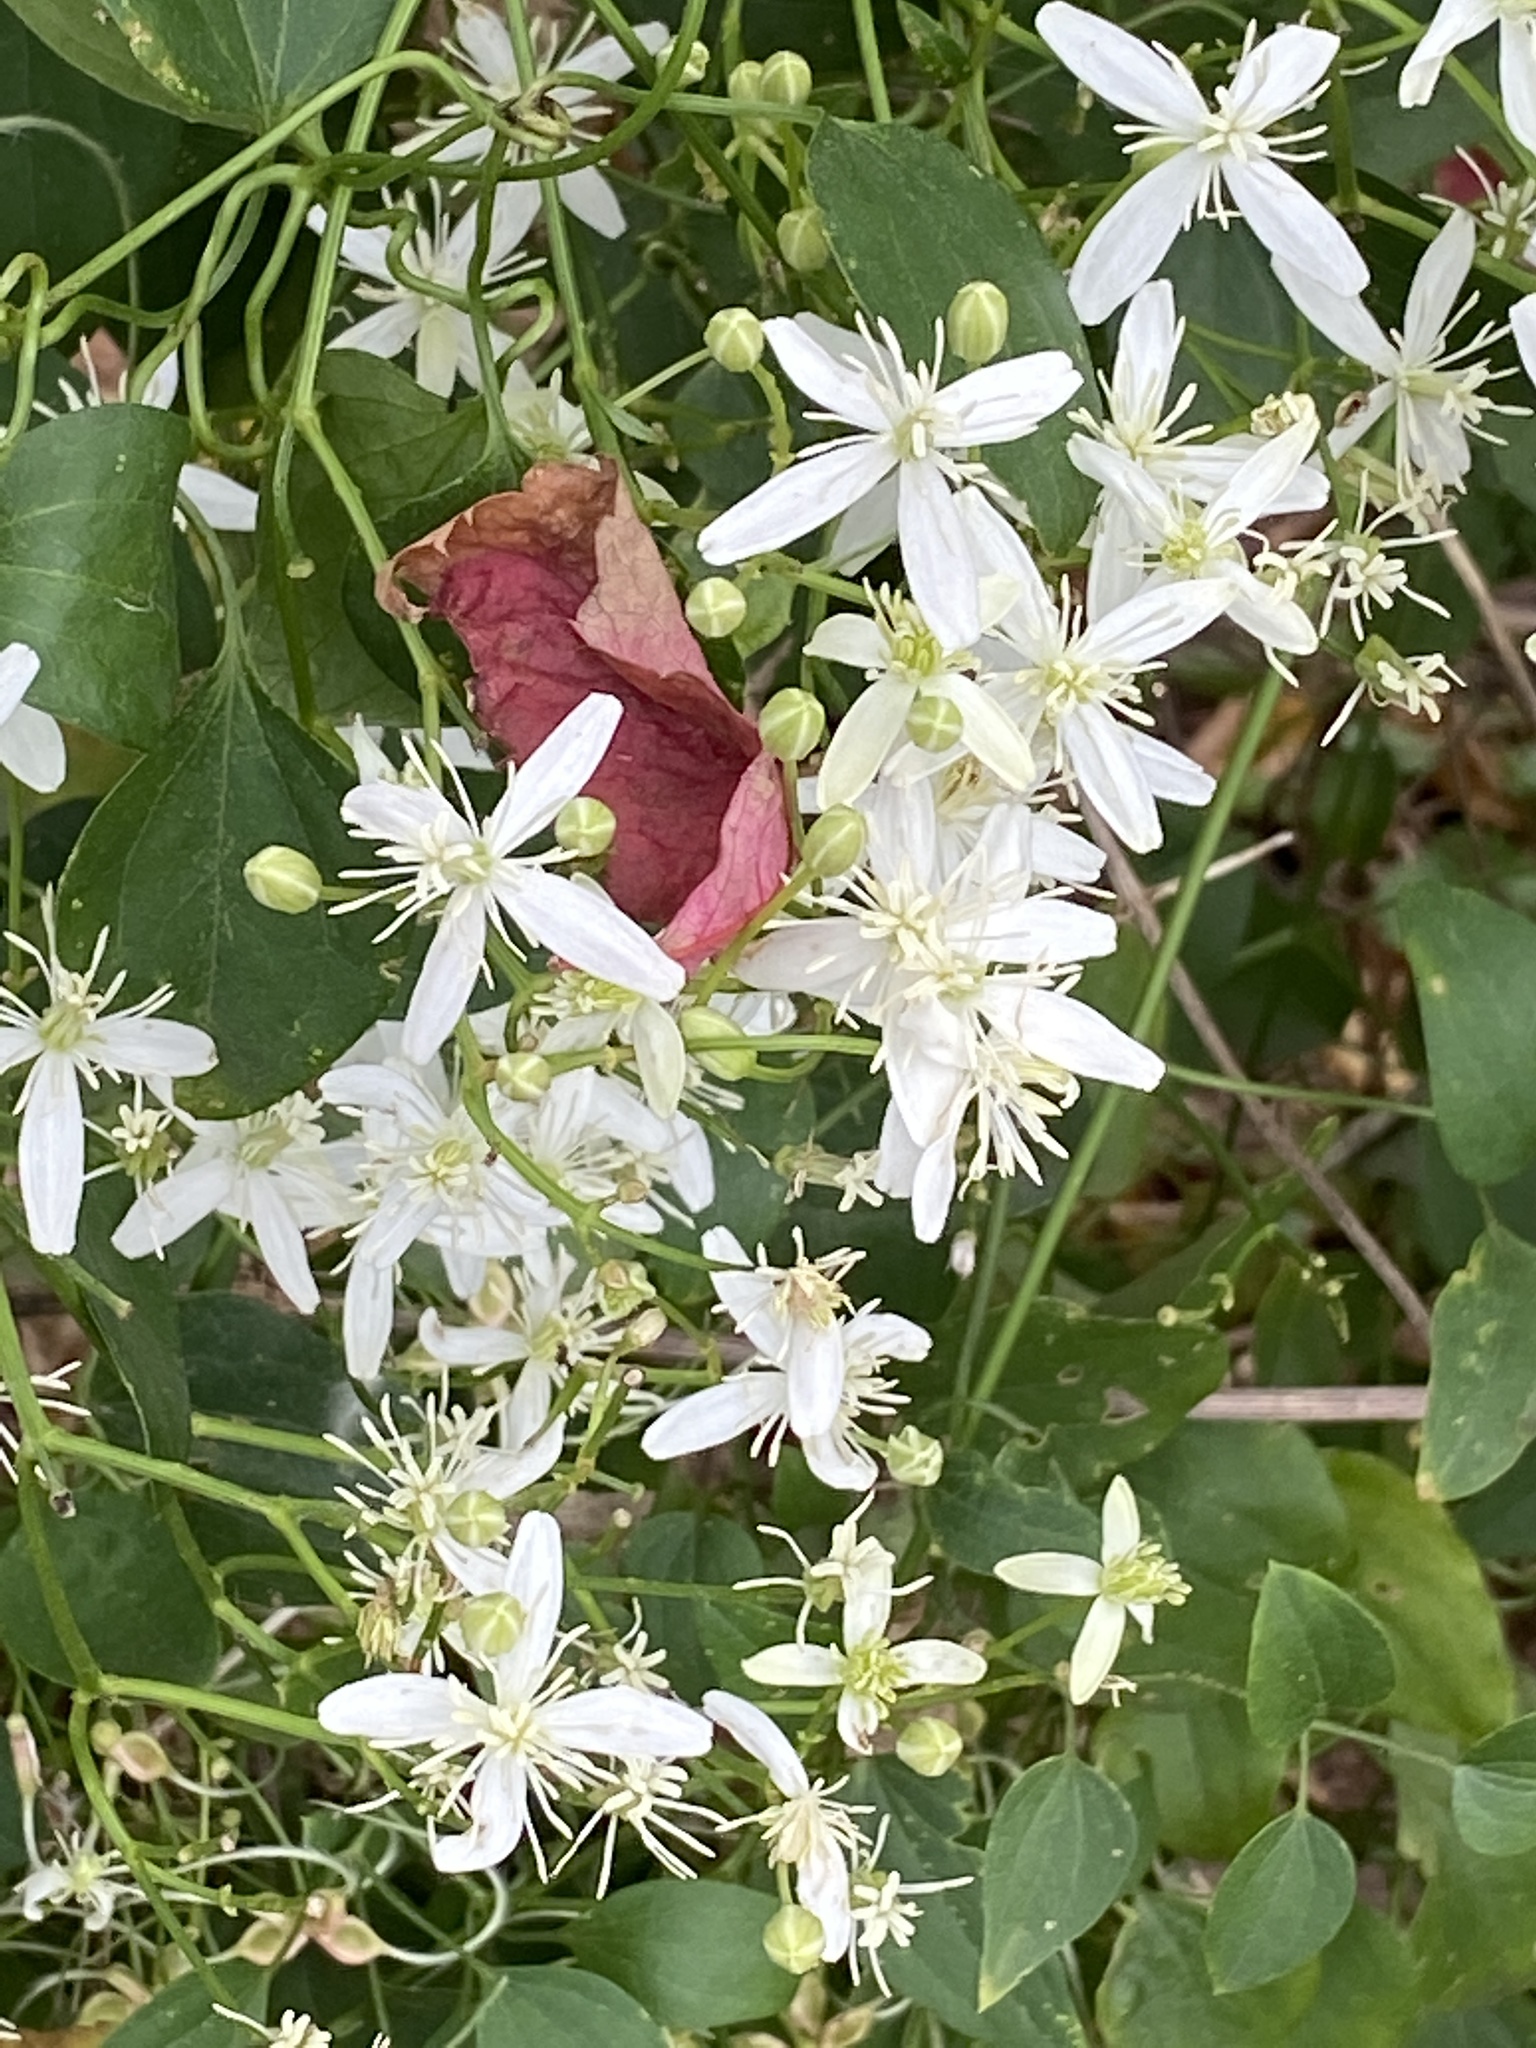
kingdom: Plantae
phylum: Tracheophyta
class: Magnoliopsida
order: Ranunculales
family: Ranunculaceae
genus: Clematis
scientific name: Clematis terniflora
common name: Sweet autumn clematis
